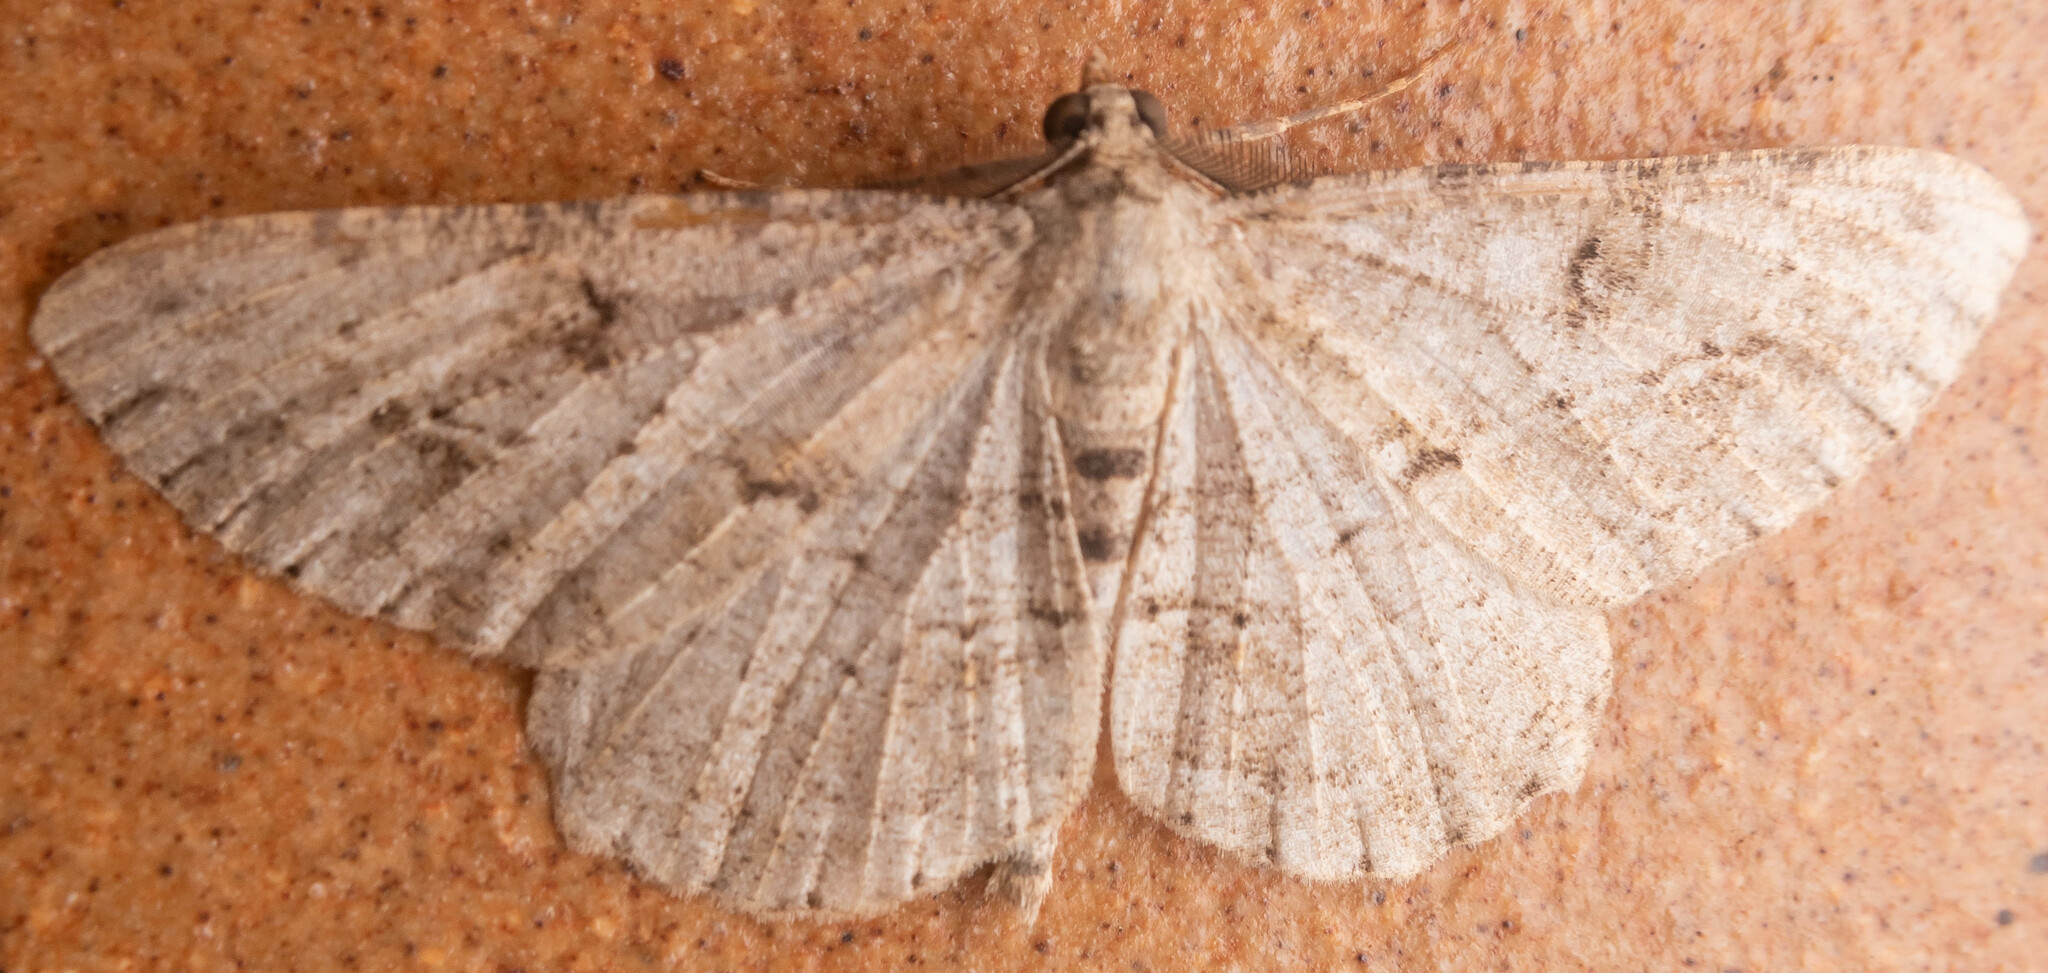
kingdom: Animalia
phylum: Arthropoda
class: Insecta
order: Lepidoptera
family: Geometridae
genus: Peribatodes
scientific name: Peribatodes rhomboidaria
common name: Willow beauty
